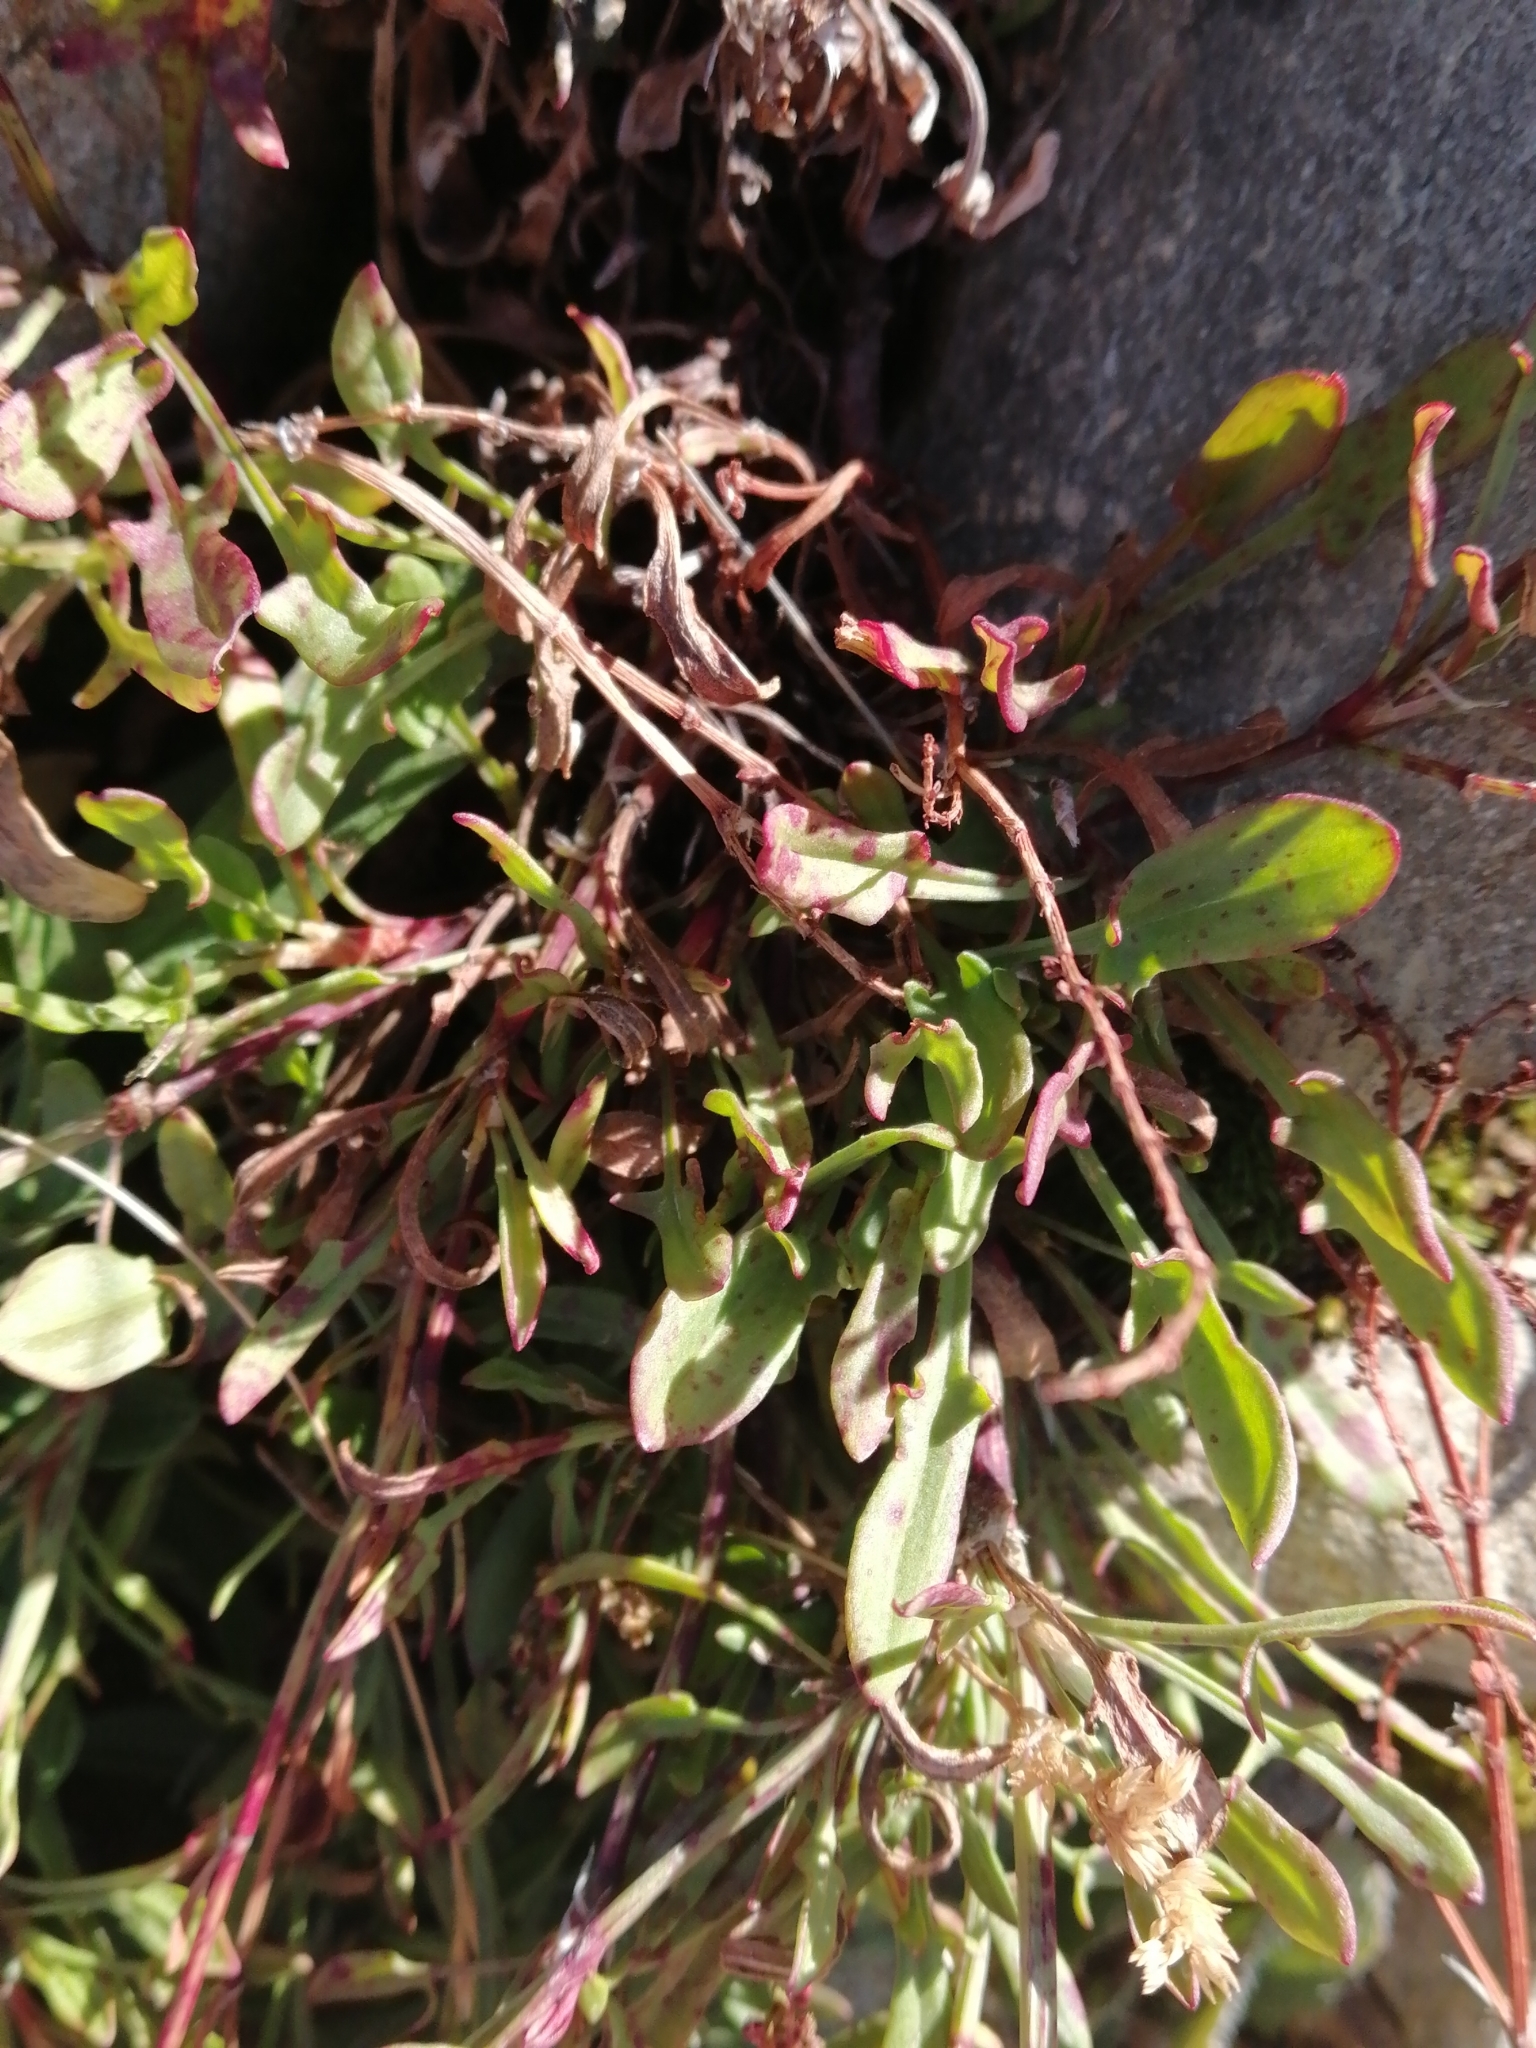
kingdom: Plantae
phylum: Tracheophyta
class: Magnoliopsida
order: Caryophyllales
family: Polygonaceae
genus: Rumex
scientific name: Rumex acetosella
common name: Common sheep sorrel
